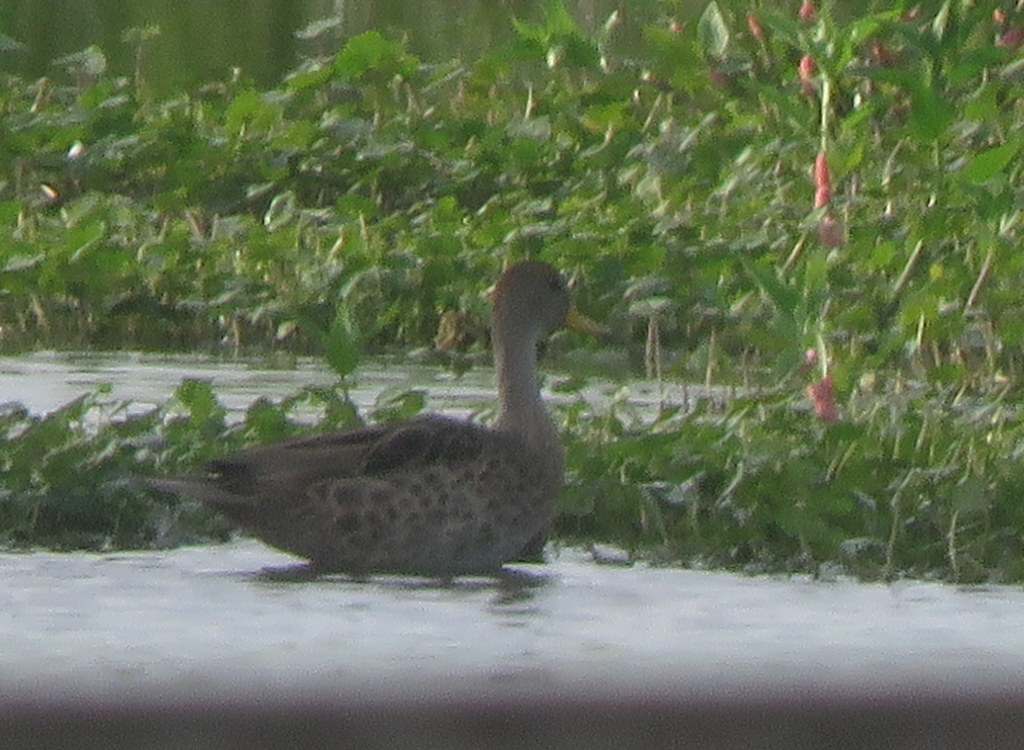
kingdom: Animalia
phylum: Chordata
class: Aves
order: Anseriformes
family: Anatidae
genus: Anas
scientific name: Anas georgica
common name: Yellow-billed pintail
